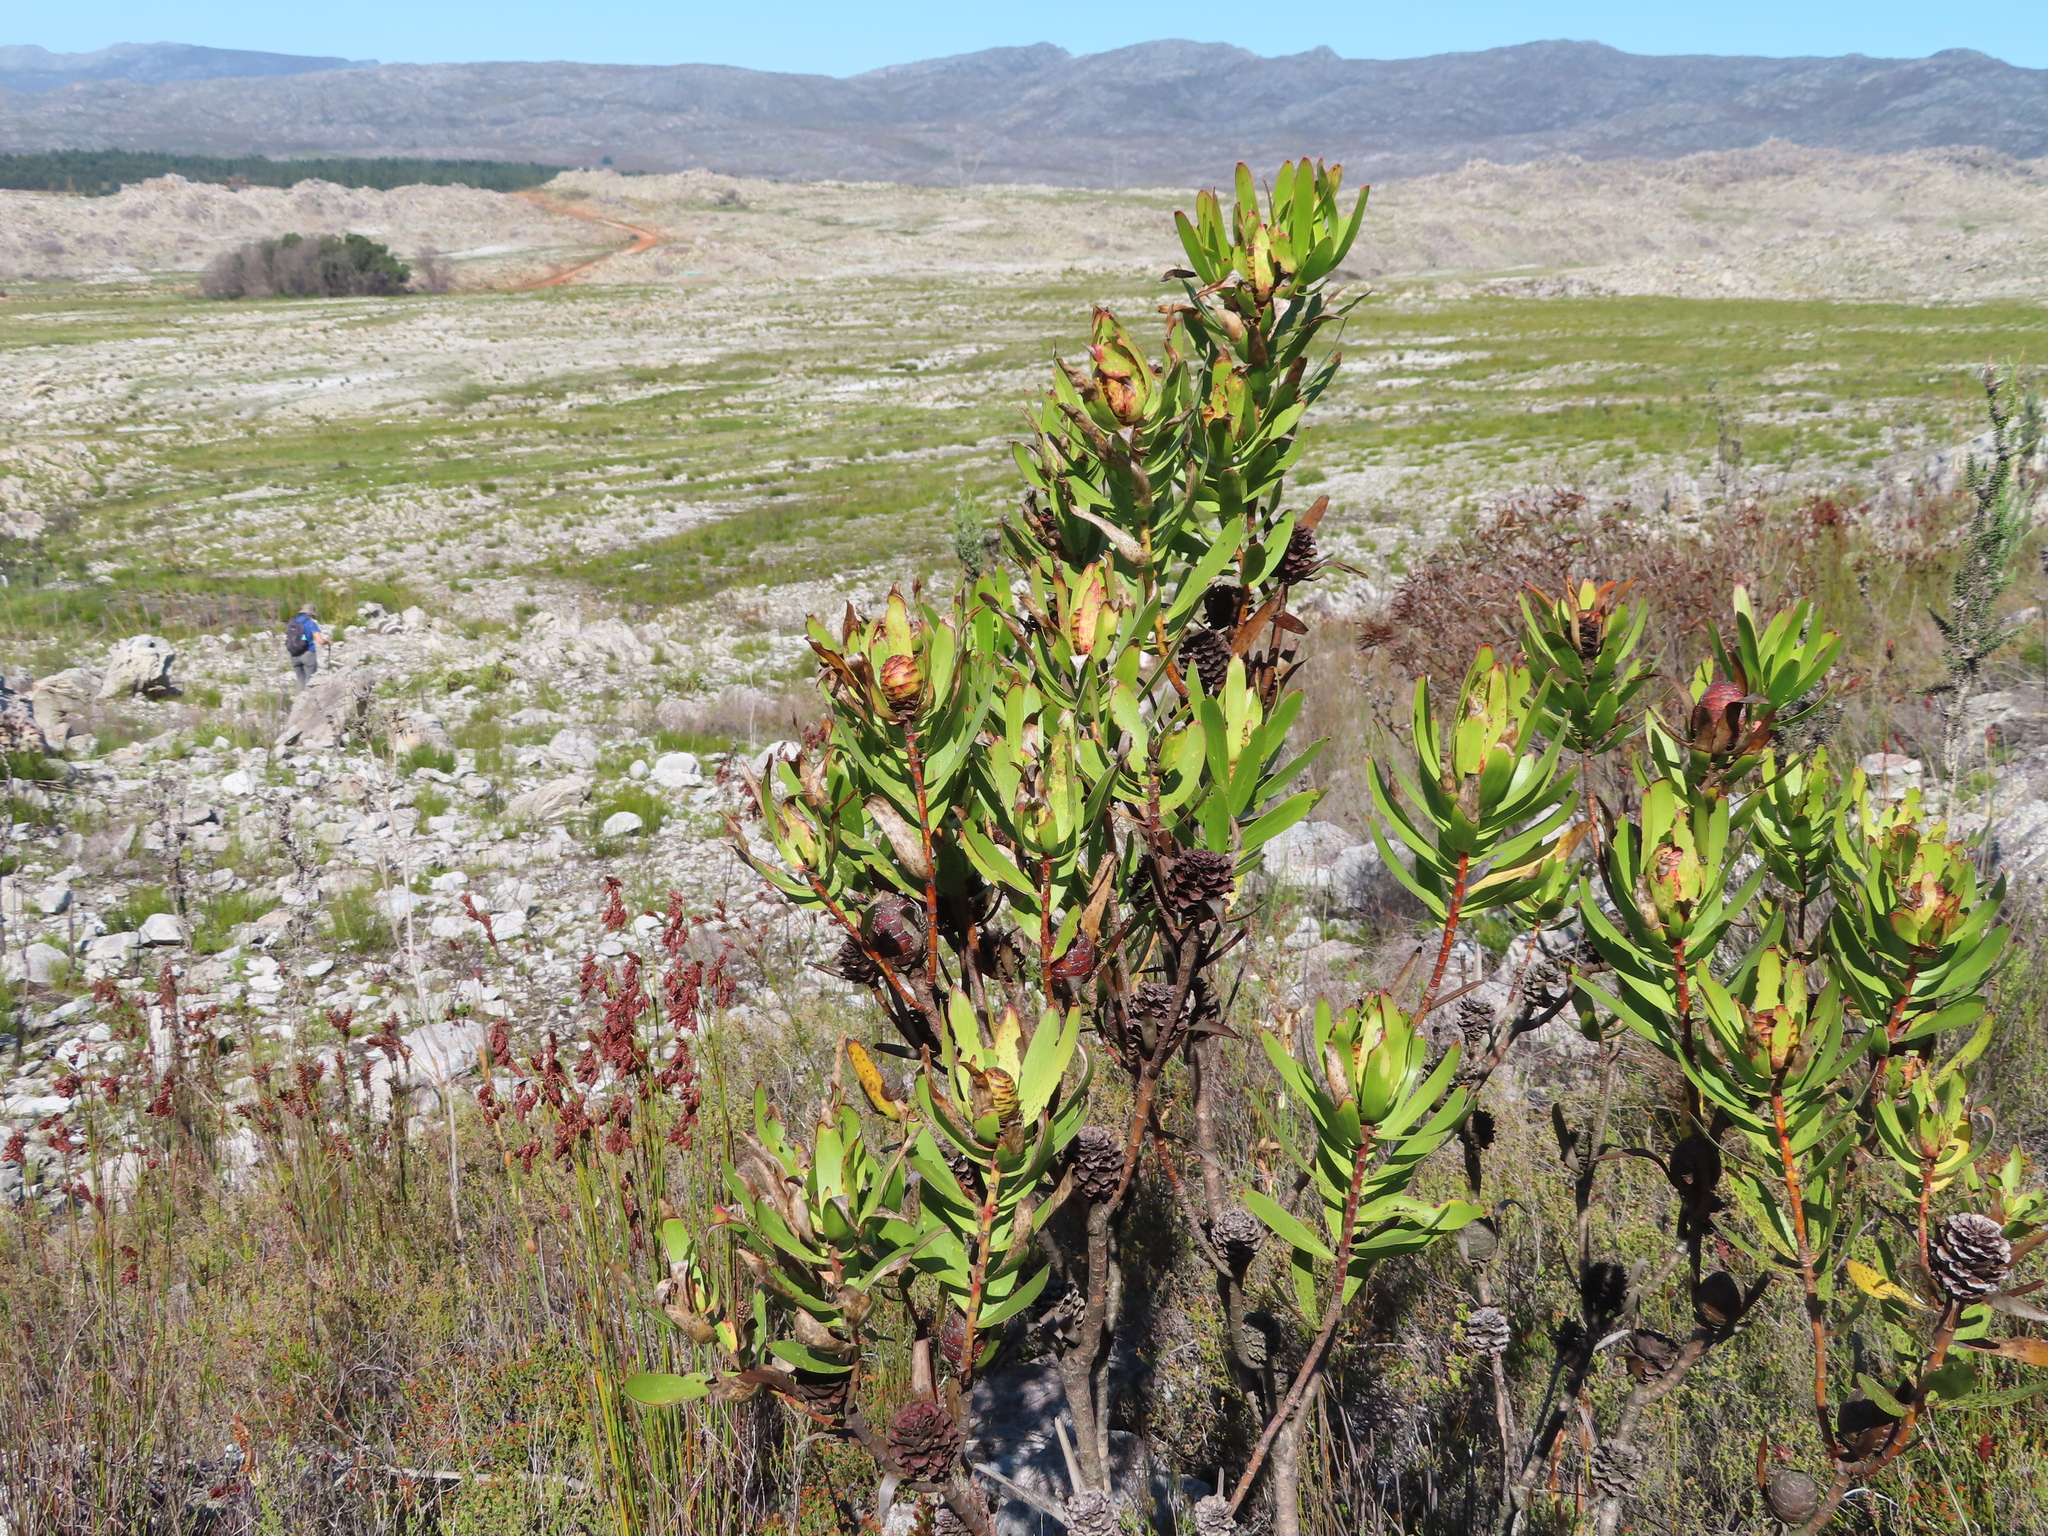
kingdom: Plantae
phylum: Tracheophyta
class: Magnoliopsida
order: Proteales
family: Proteaceae
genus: Leucadendron
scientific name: Leucadendron microcephalum
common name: Oilbract conebush
